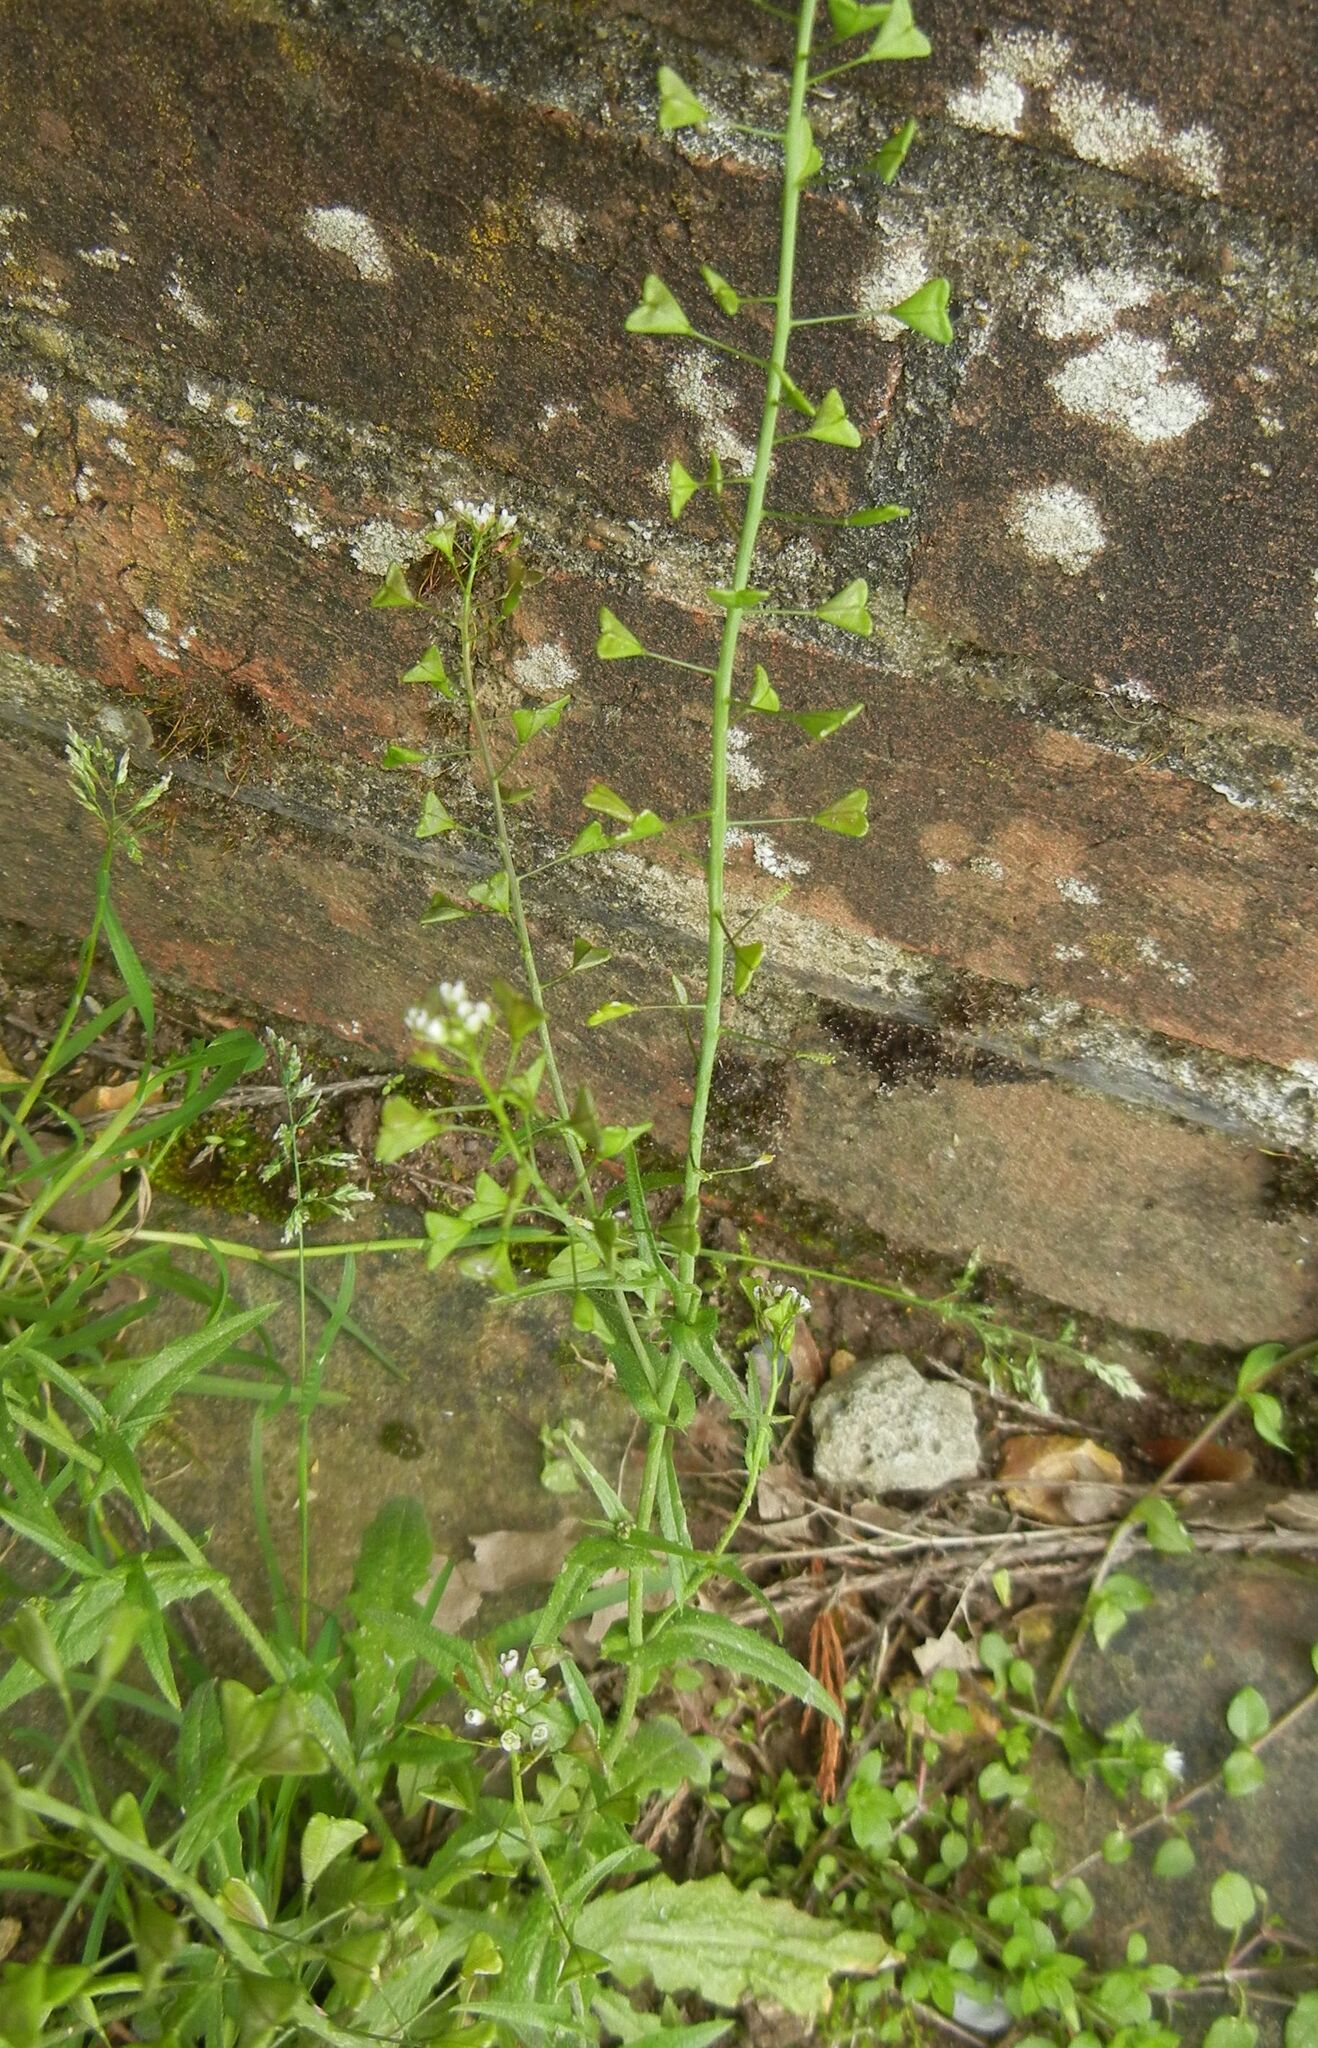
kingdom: Plantae
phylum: Tracheophyta
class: Magnoliopsida
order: Brassicales
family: Brassicaceae
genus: Capsella
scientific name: Capsella bursa-pastoris
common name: Shepherd's purse
